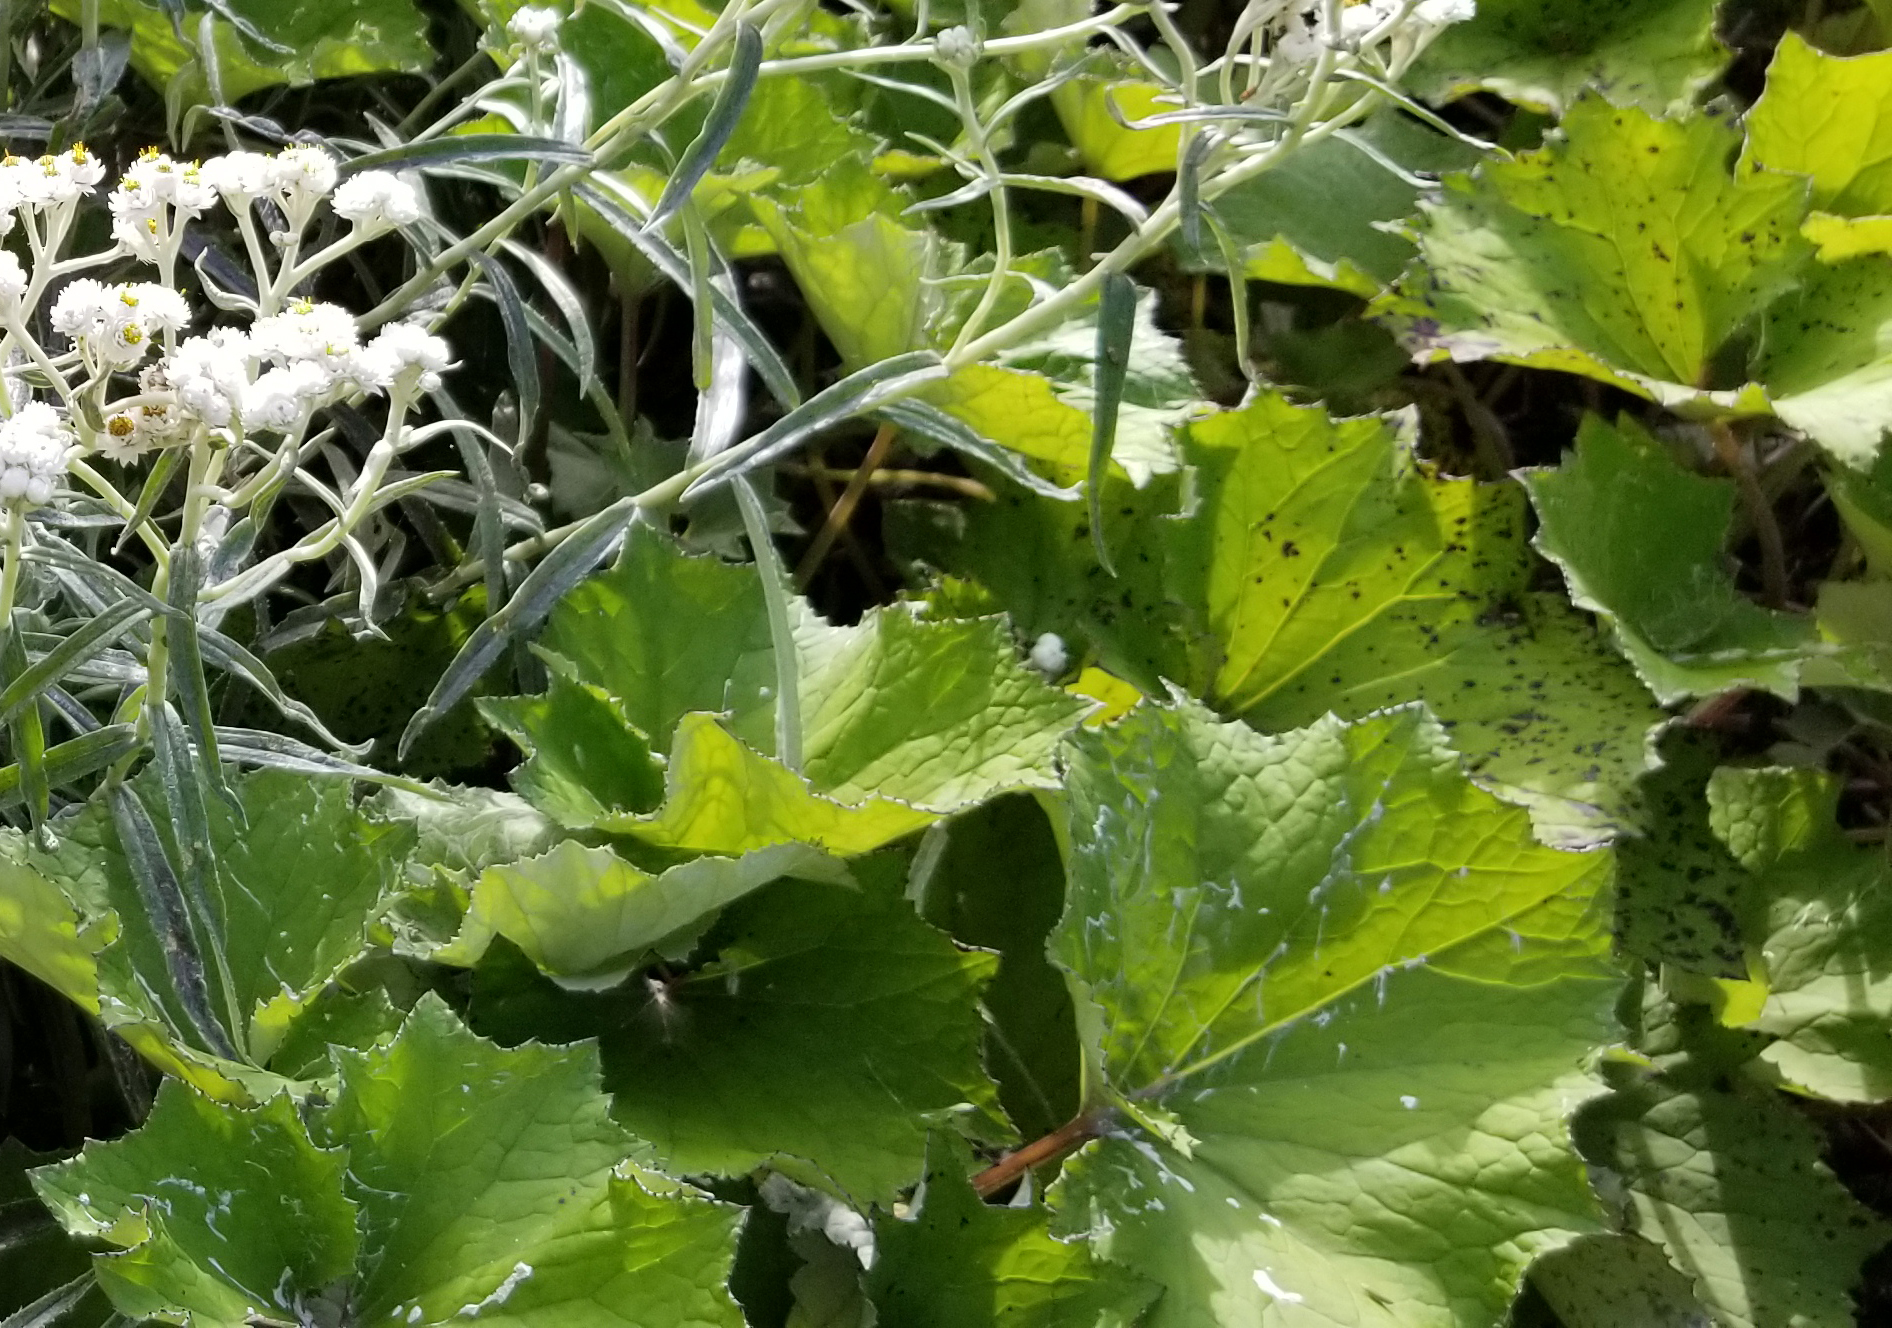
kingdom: Plantae
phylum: Tracheophyta
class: Magnoliopsida
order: Asterales
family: Asteraceae
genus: Tussilago
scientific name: Tussilago farfara
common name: Coltsfoot
